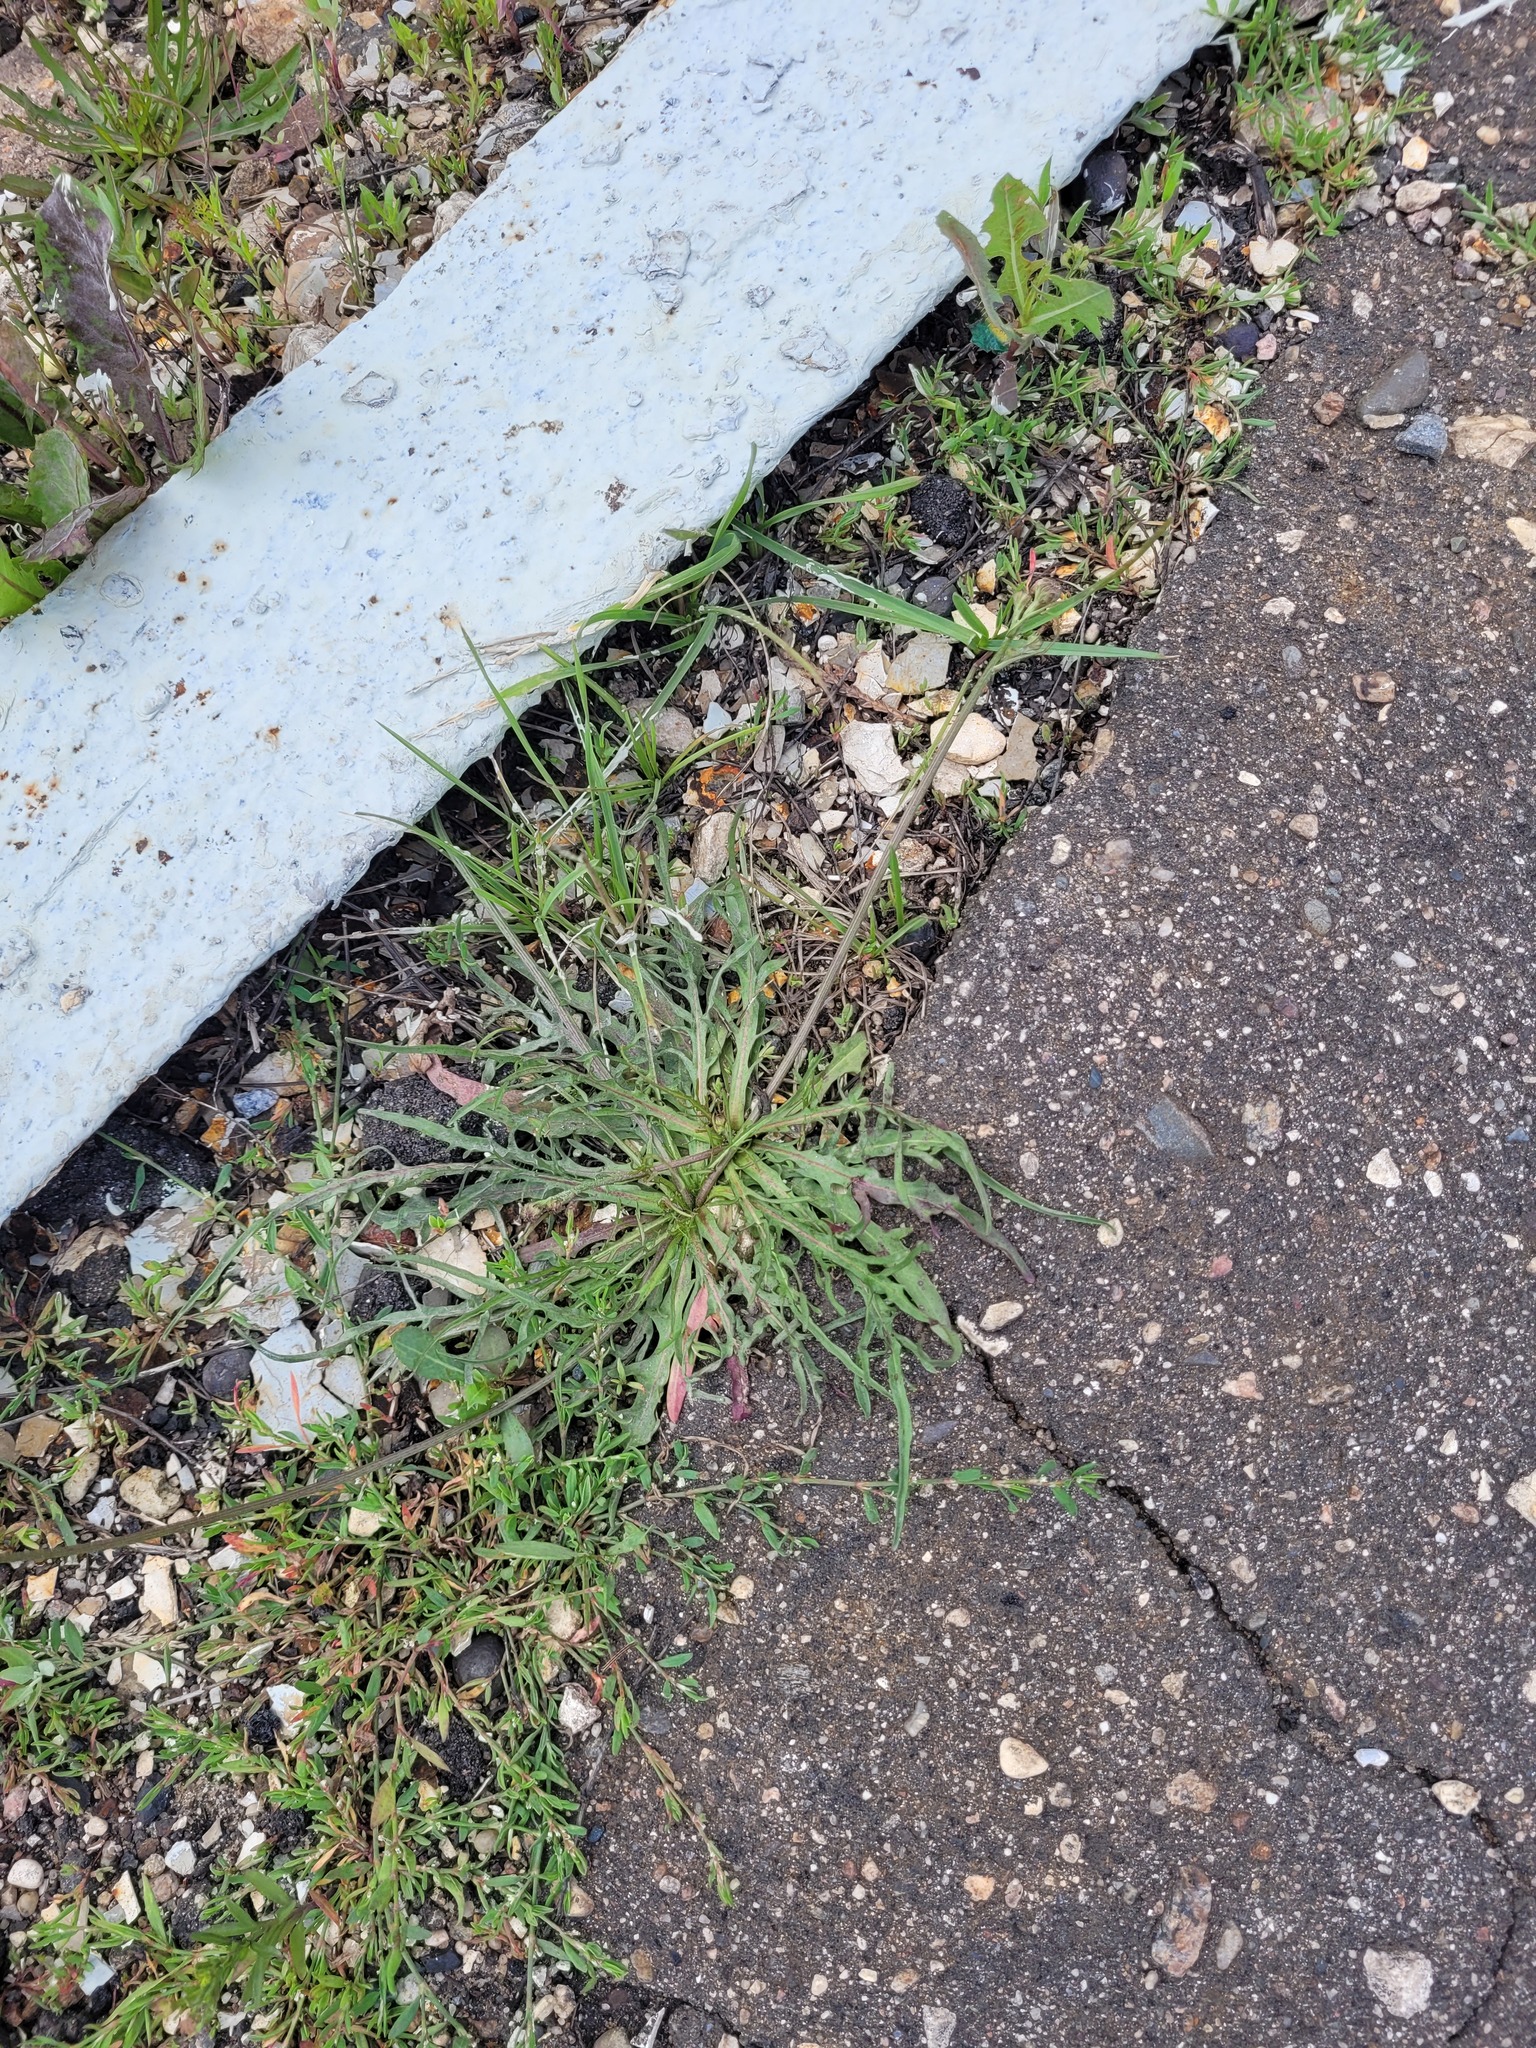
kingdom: Plantae
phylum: Tracheophyta
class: Magnoliopsida
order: Asterales
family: Asteraceae
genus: Scorzoneroides
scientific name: Scorzoneroides autumnalis
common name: Autumn hawkbit
